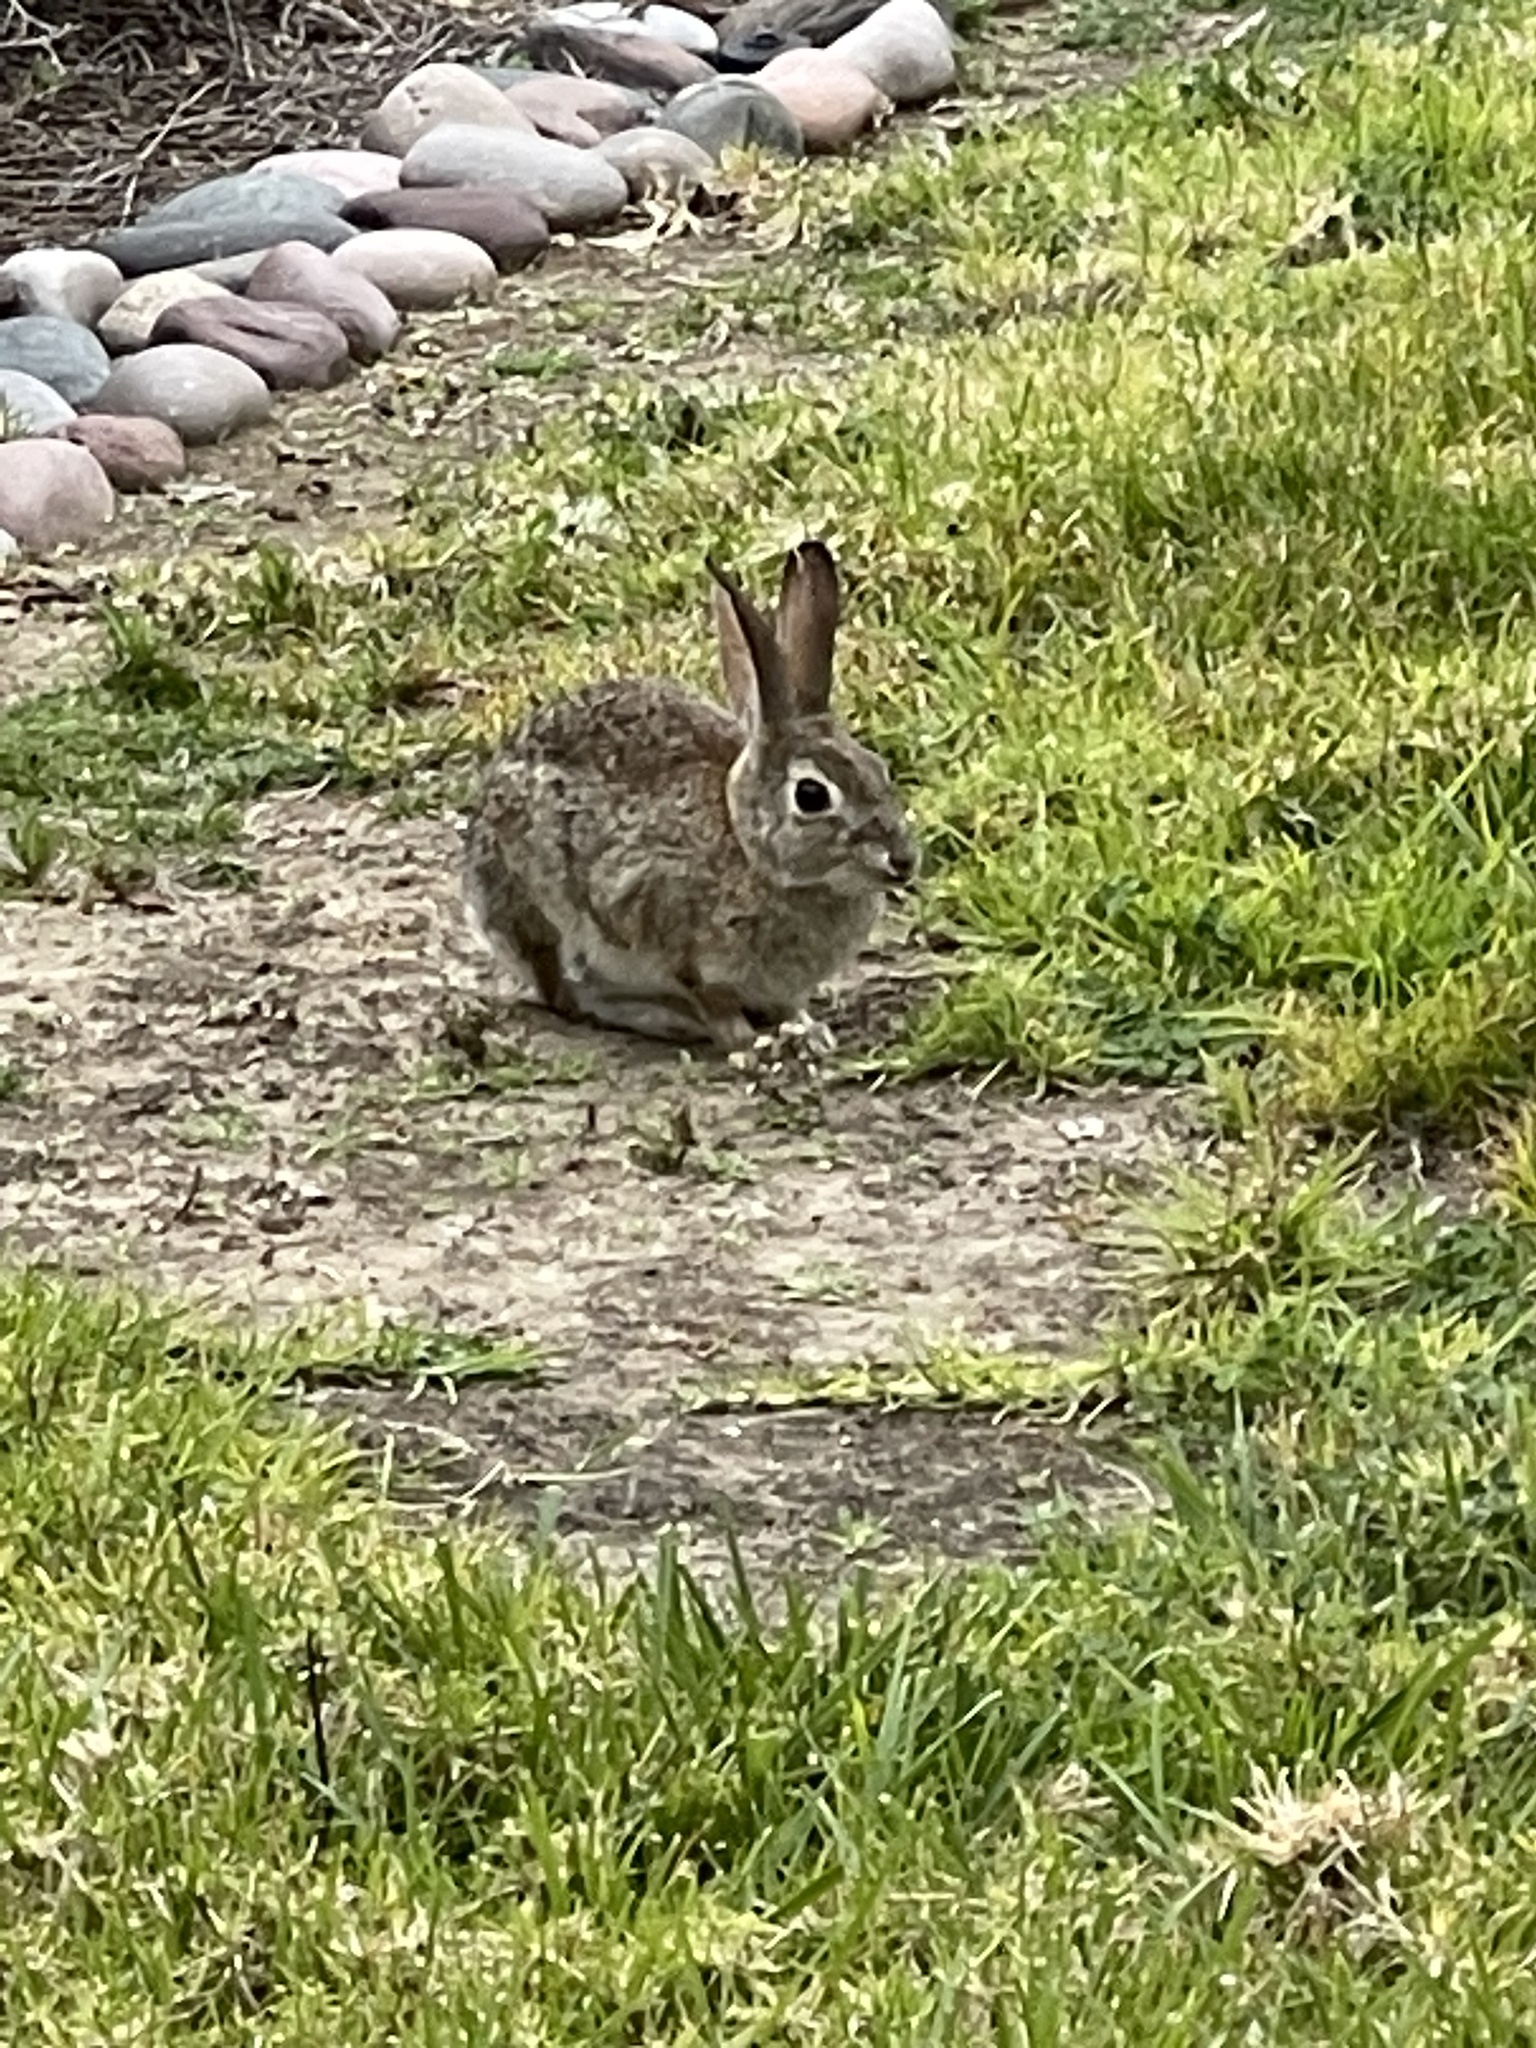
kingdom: Animalia
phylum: Chordata
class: Mammalia
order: Lagomorpha
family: Leporidae
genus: Sylvilagus
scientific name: Sylvilagus audubonii
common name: Desert cottontail
